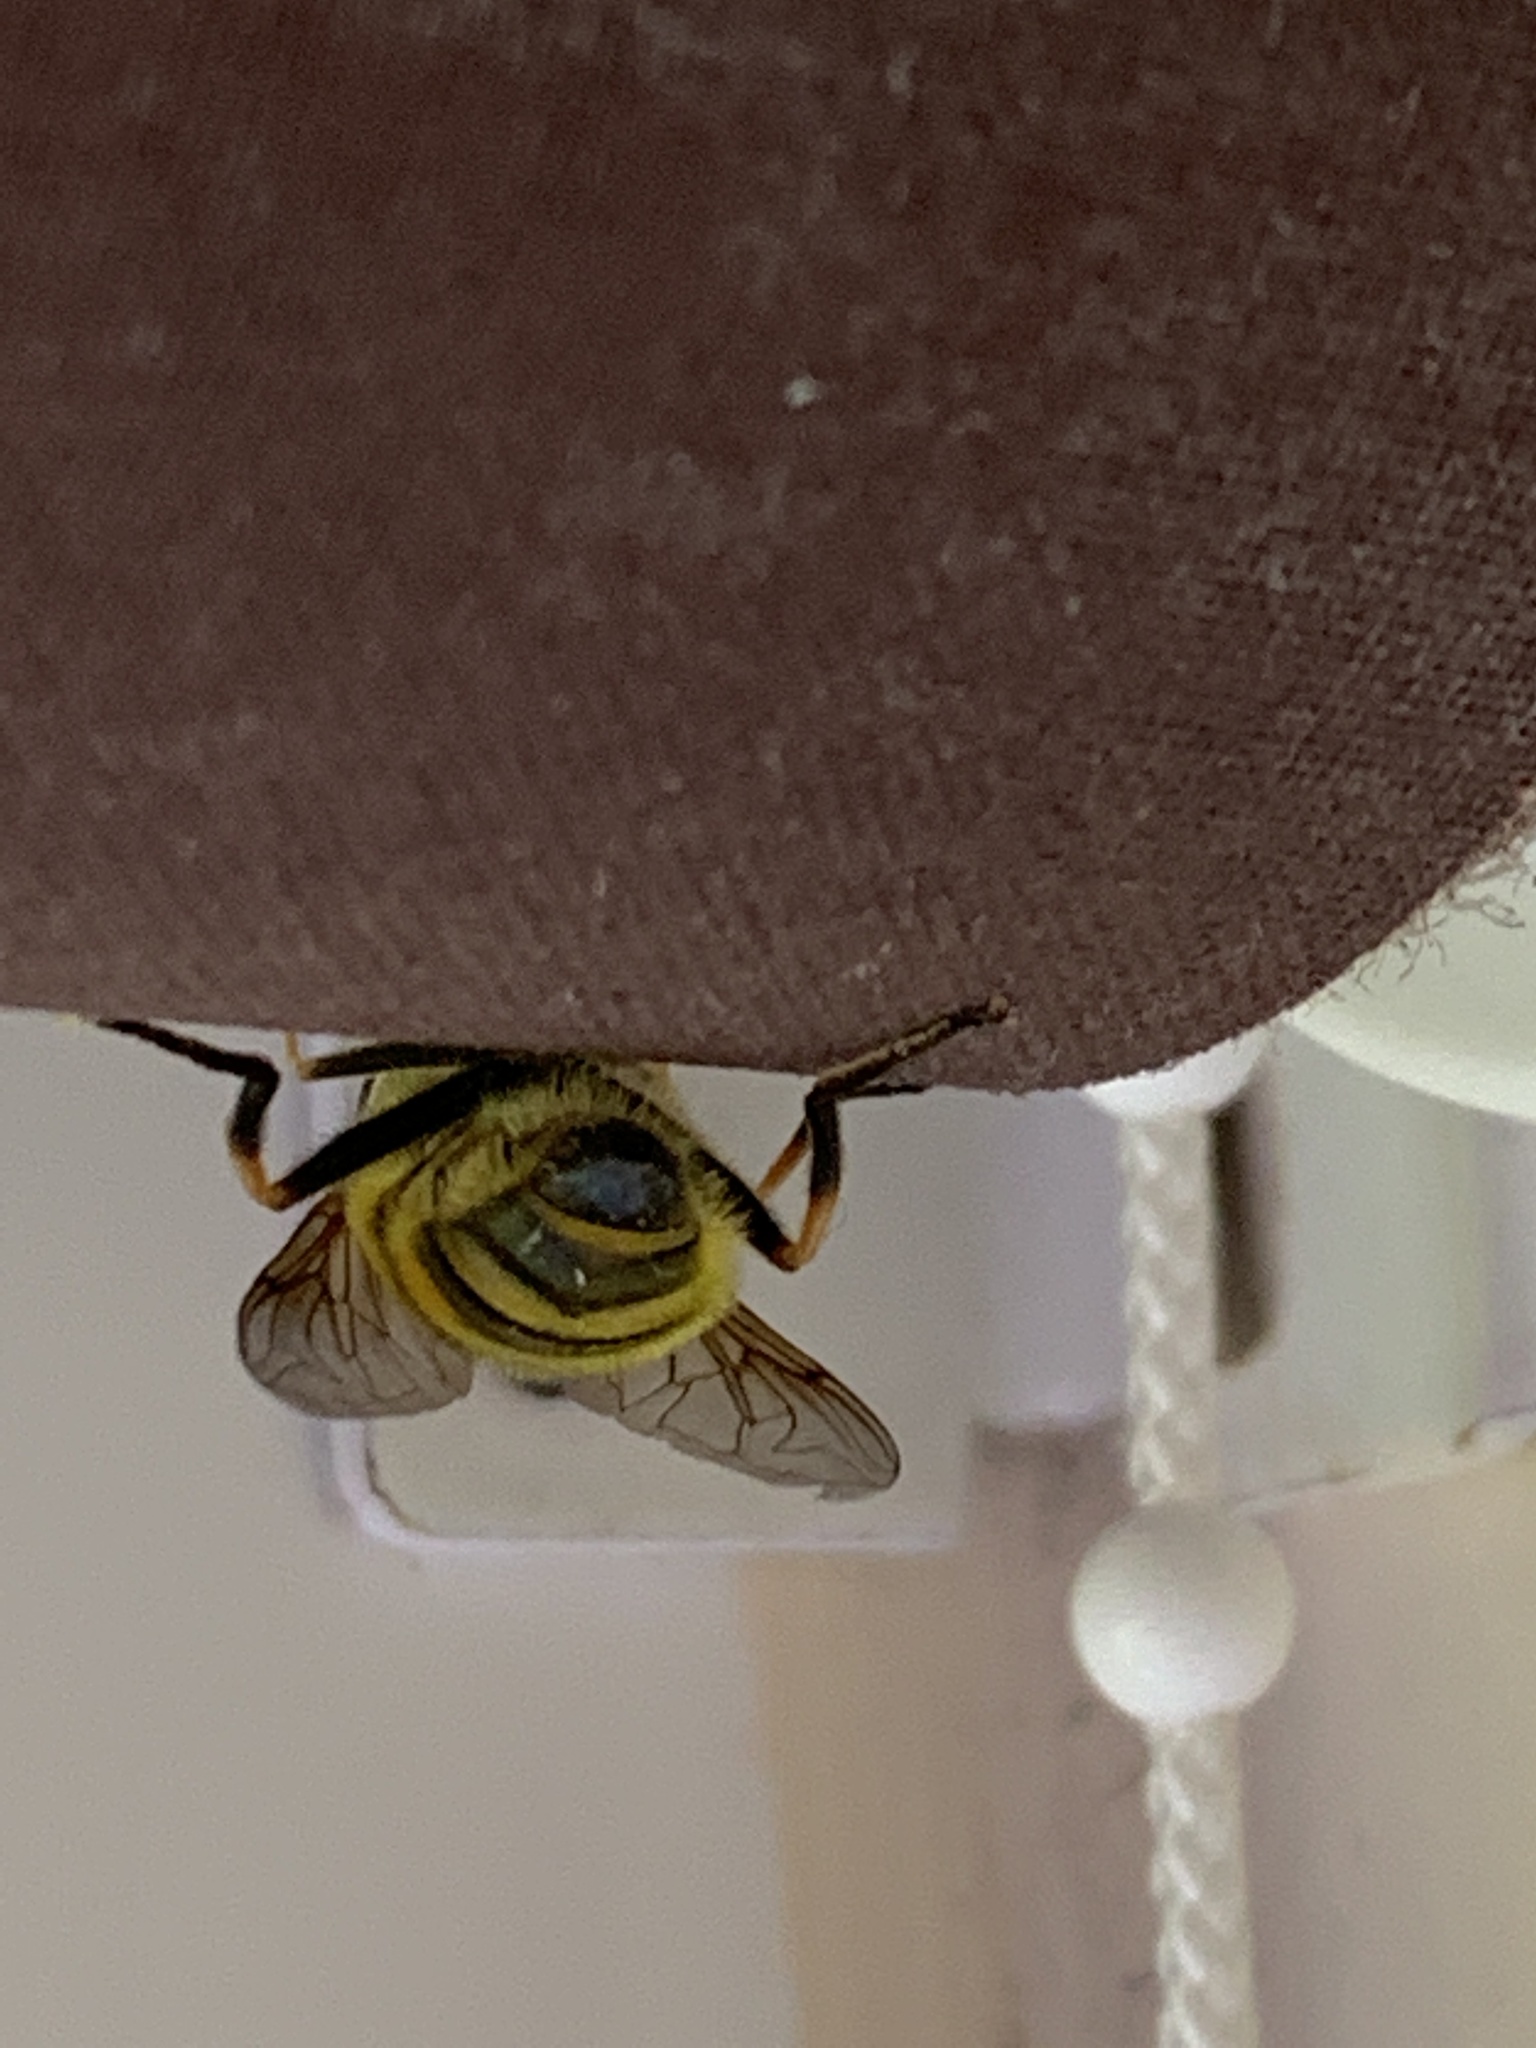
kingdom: Animalia
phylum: Arthropoda
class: Insecta
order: Diptera
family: Syrphidae
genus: Myathropa
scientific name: Myathropa florea
